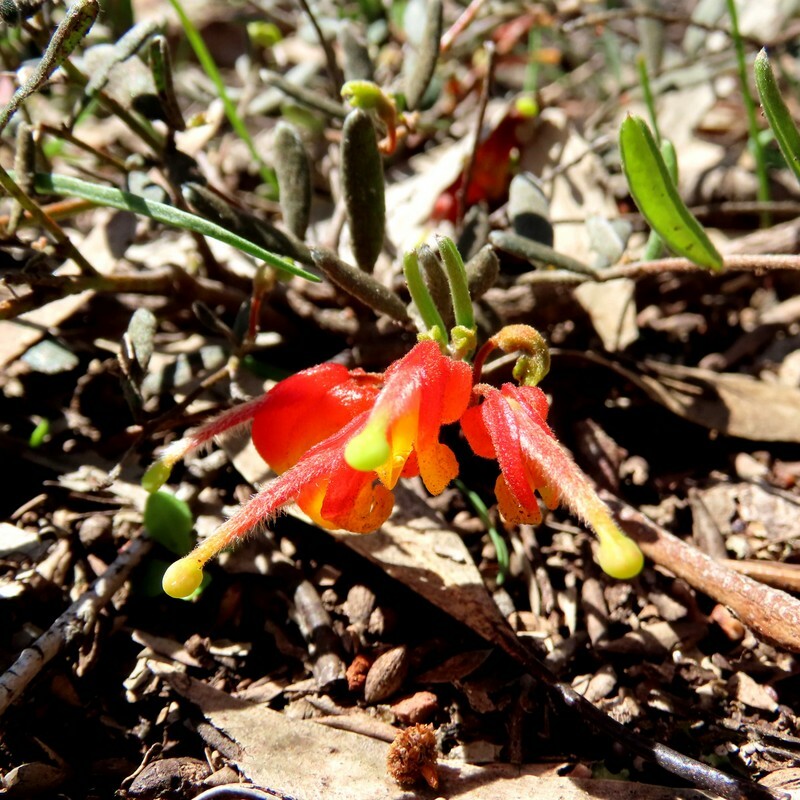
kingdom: Plantae
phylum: Tracheophyta
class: Magnoliopsida
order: Proteales
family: Proteaceae
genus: Grevillea
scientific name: Grevillea alpina
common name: Catclaws grevillea
